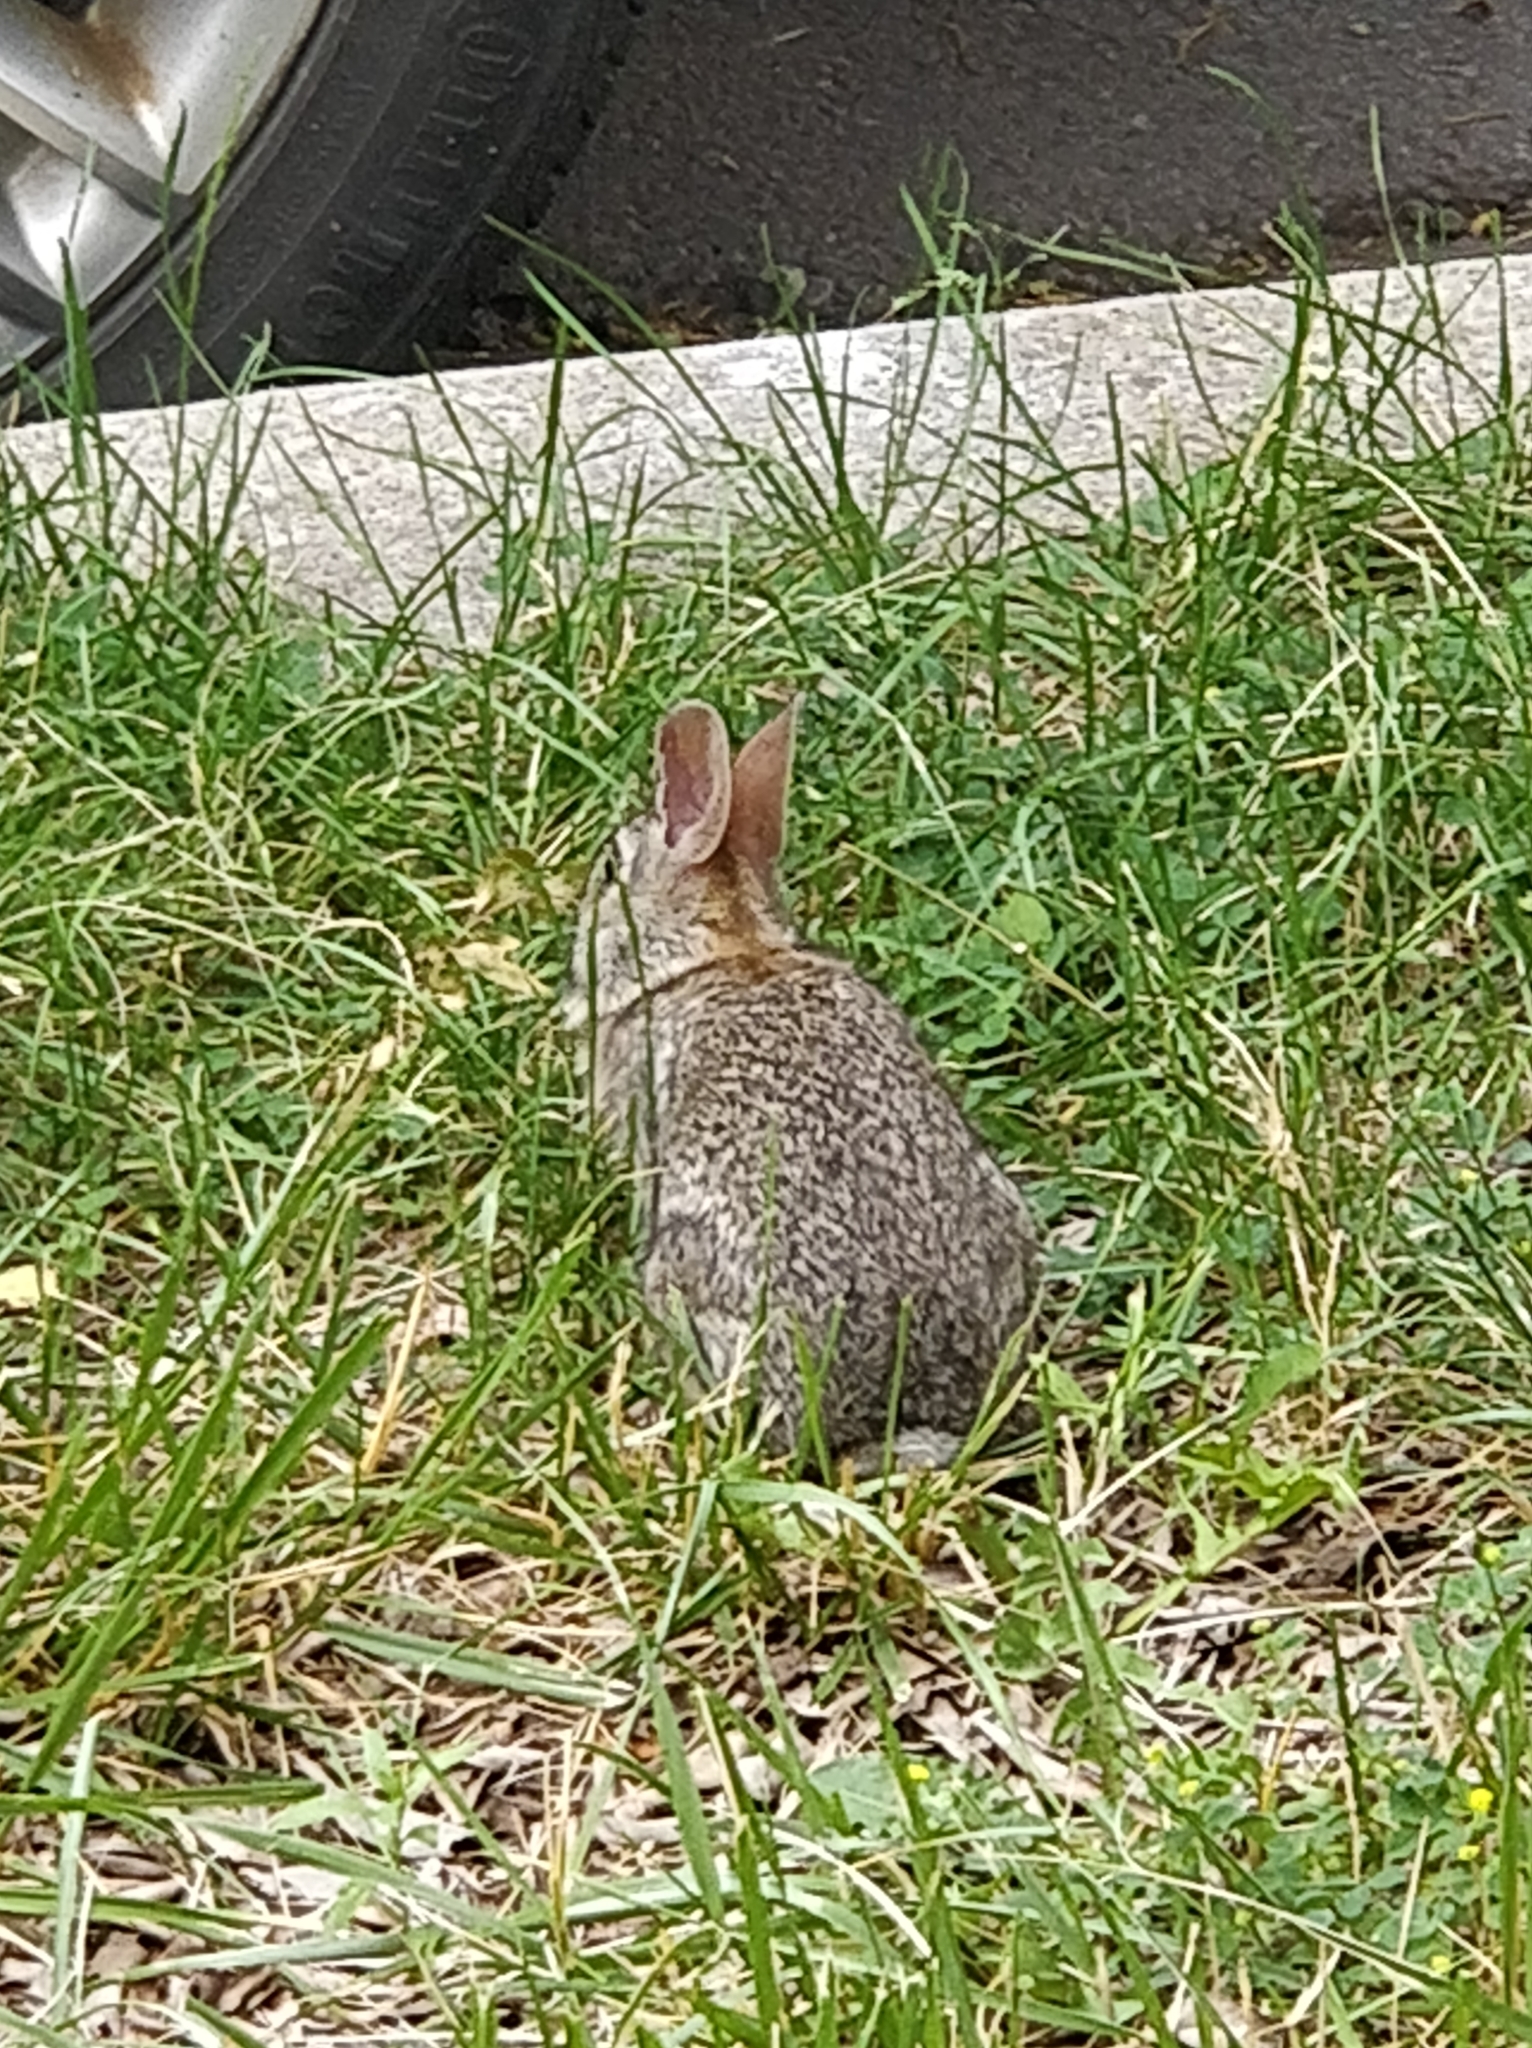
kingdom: Animalia
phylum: Chordata
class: Mammalia
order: Lagomorpha
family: Leporidae
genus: Sylvilagus
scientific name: Sylvilagus floridanus
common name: Eastern cottontail
